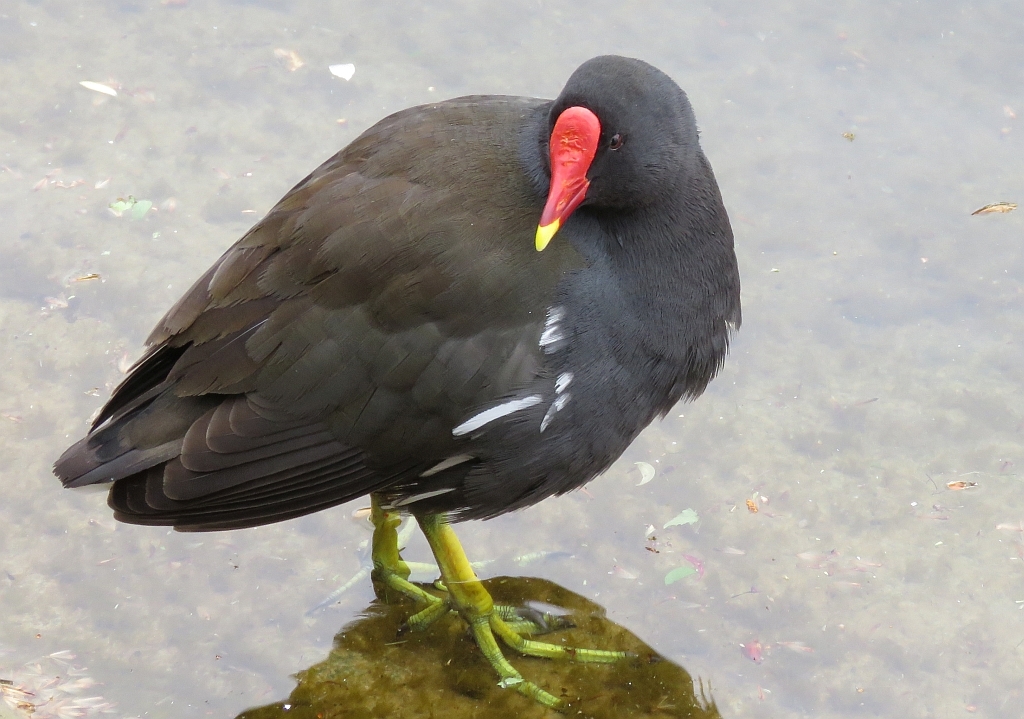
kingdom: Animalia
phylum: Chordata
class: Aves
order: Gruiformes
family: Rallidae
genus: Gallinula
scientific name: Gallinula chloropus
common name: Common moorhen
